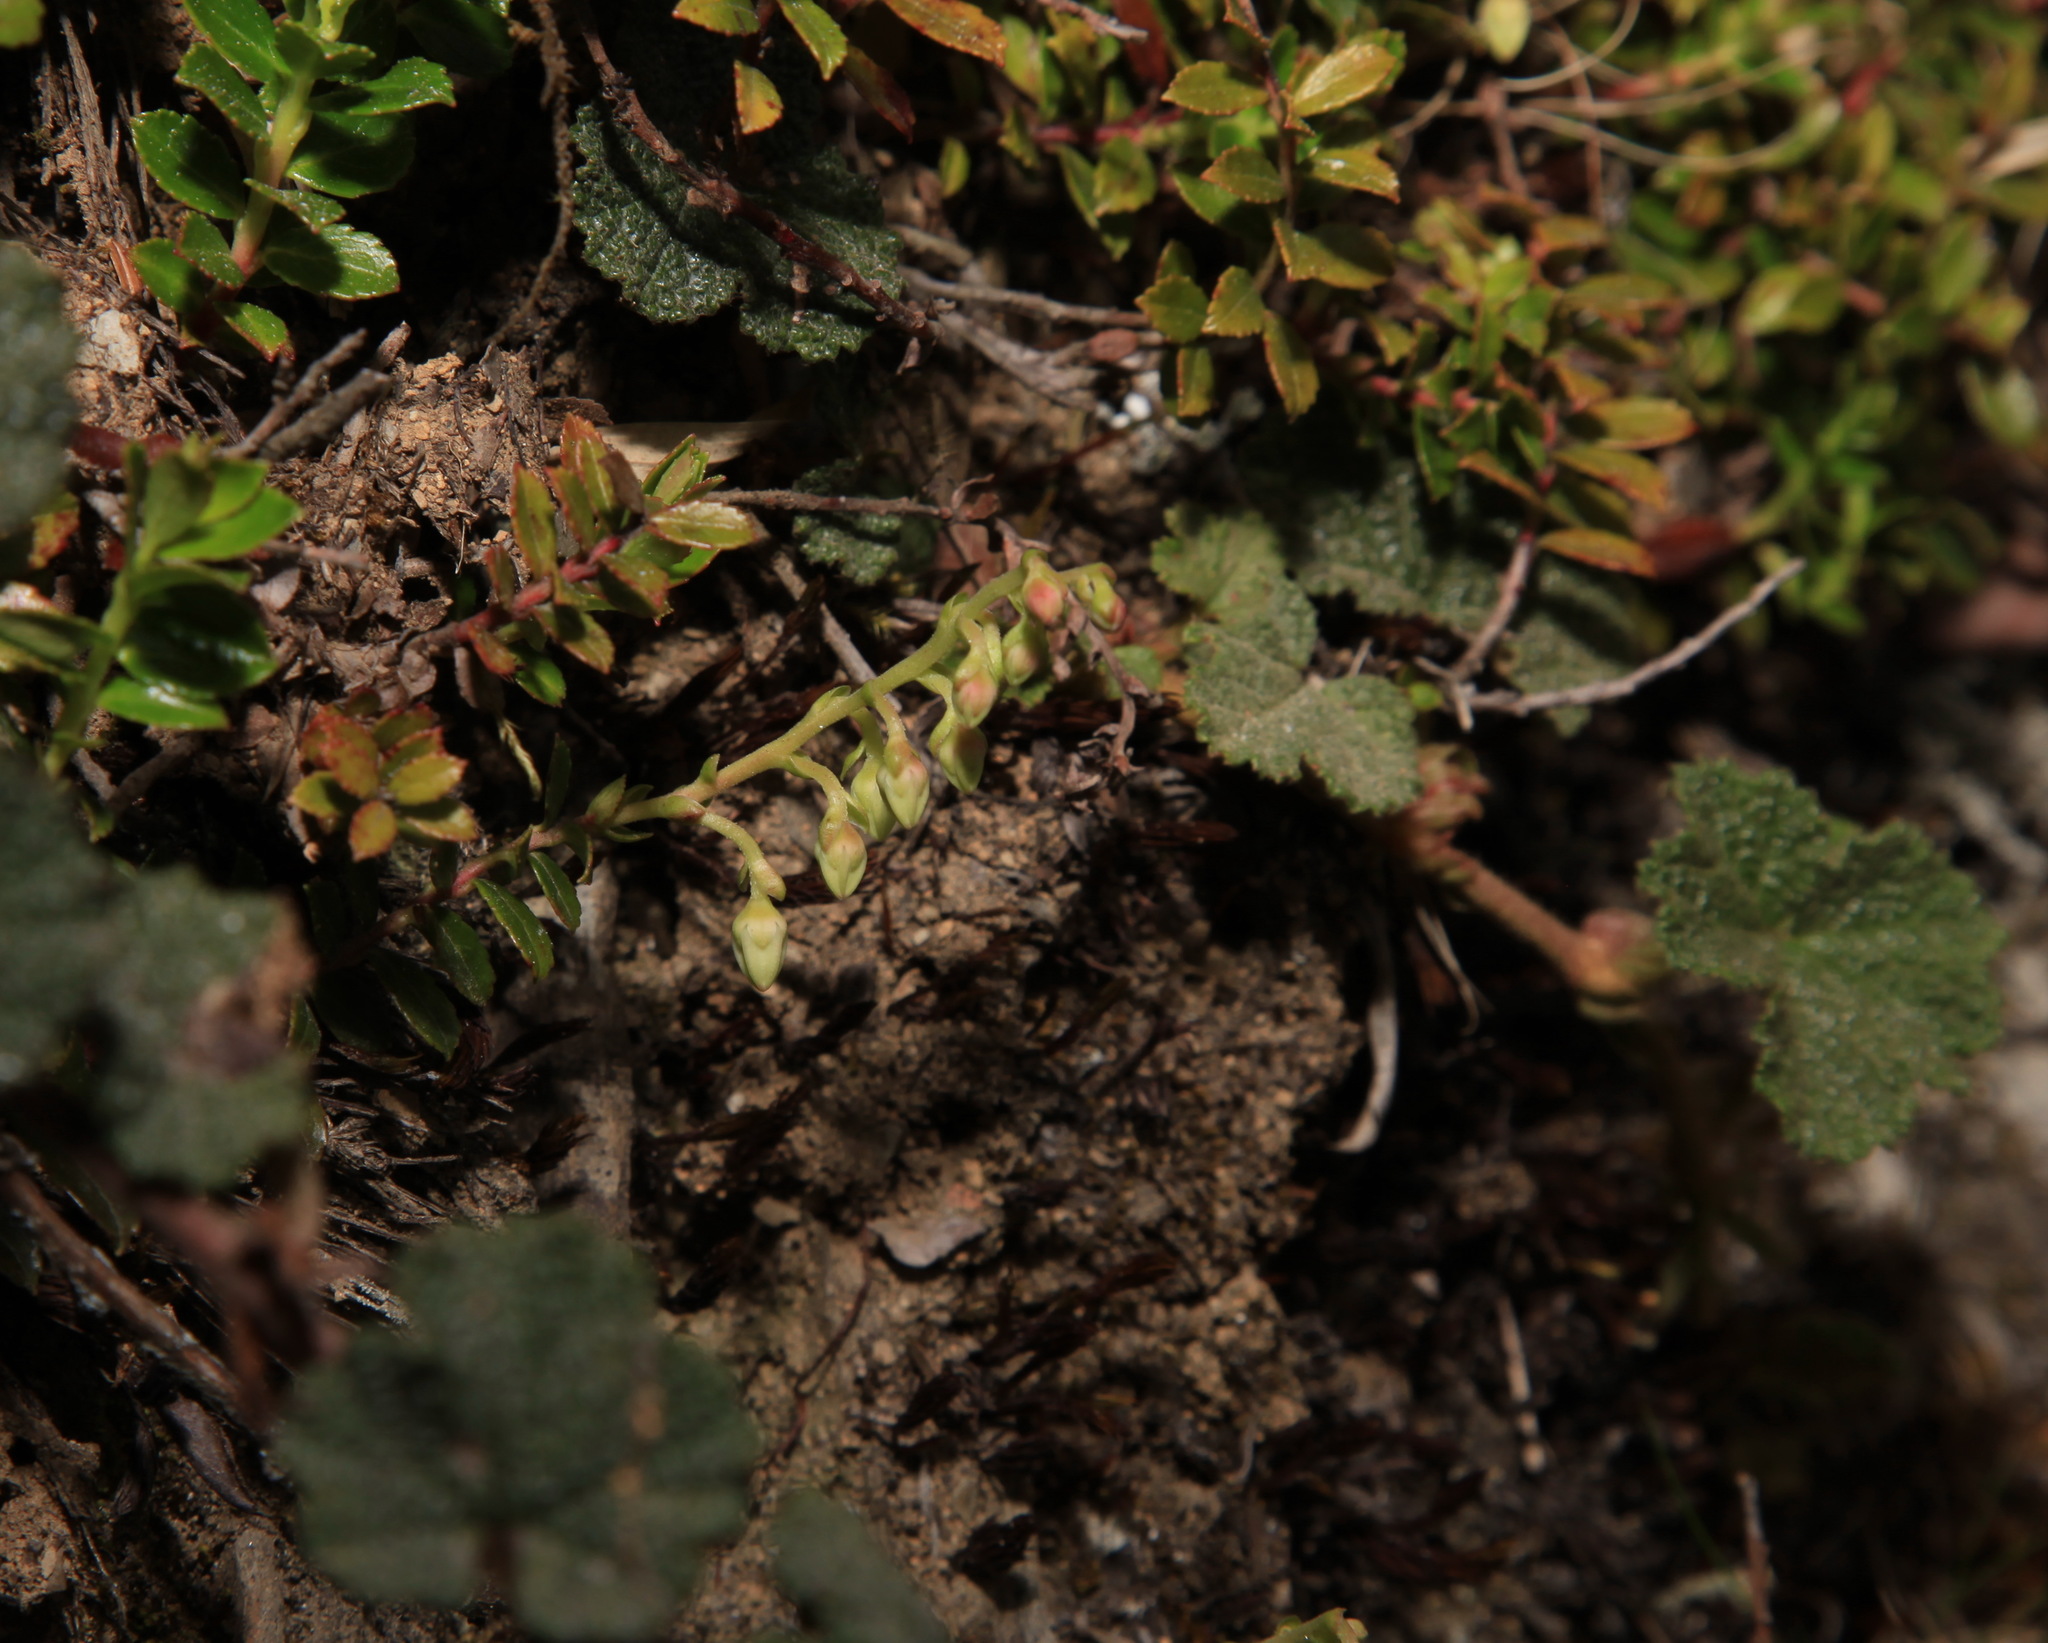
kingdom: Plantae
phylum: Tracheophyta
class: Magnoliopsida
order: Ericales
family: Ericaceae
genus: Gaultheria
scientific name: Gaultheria borneensis
